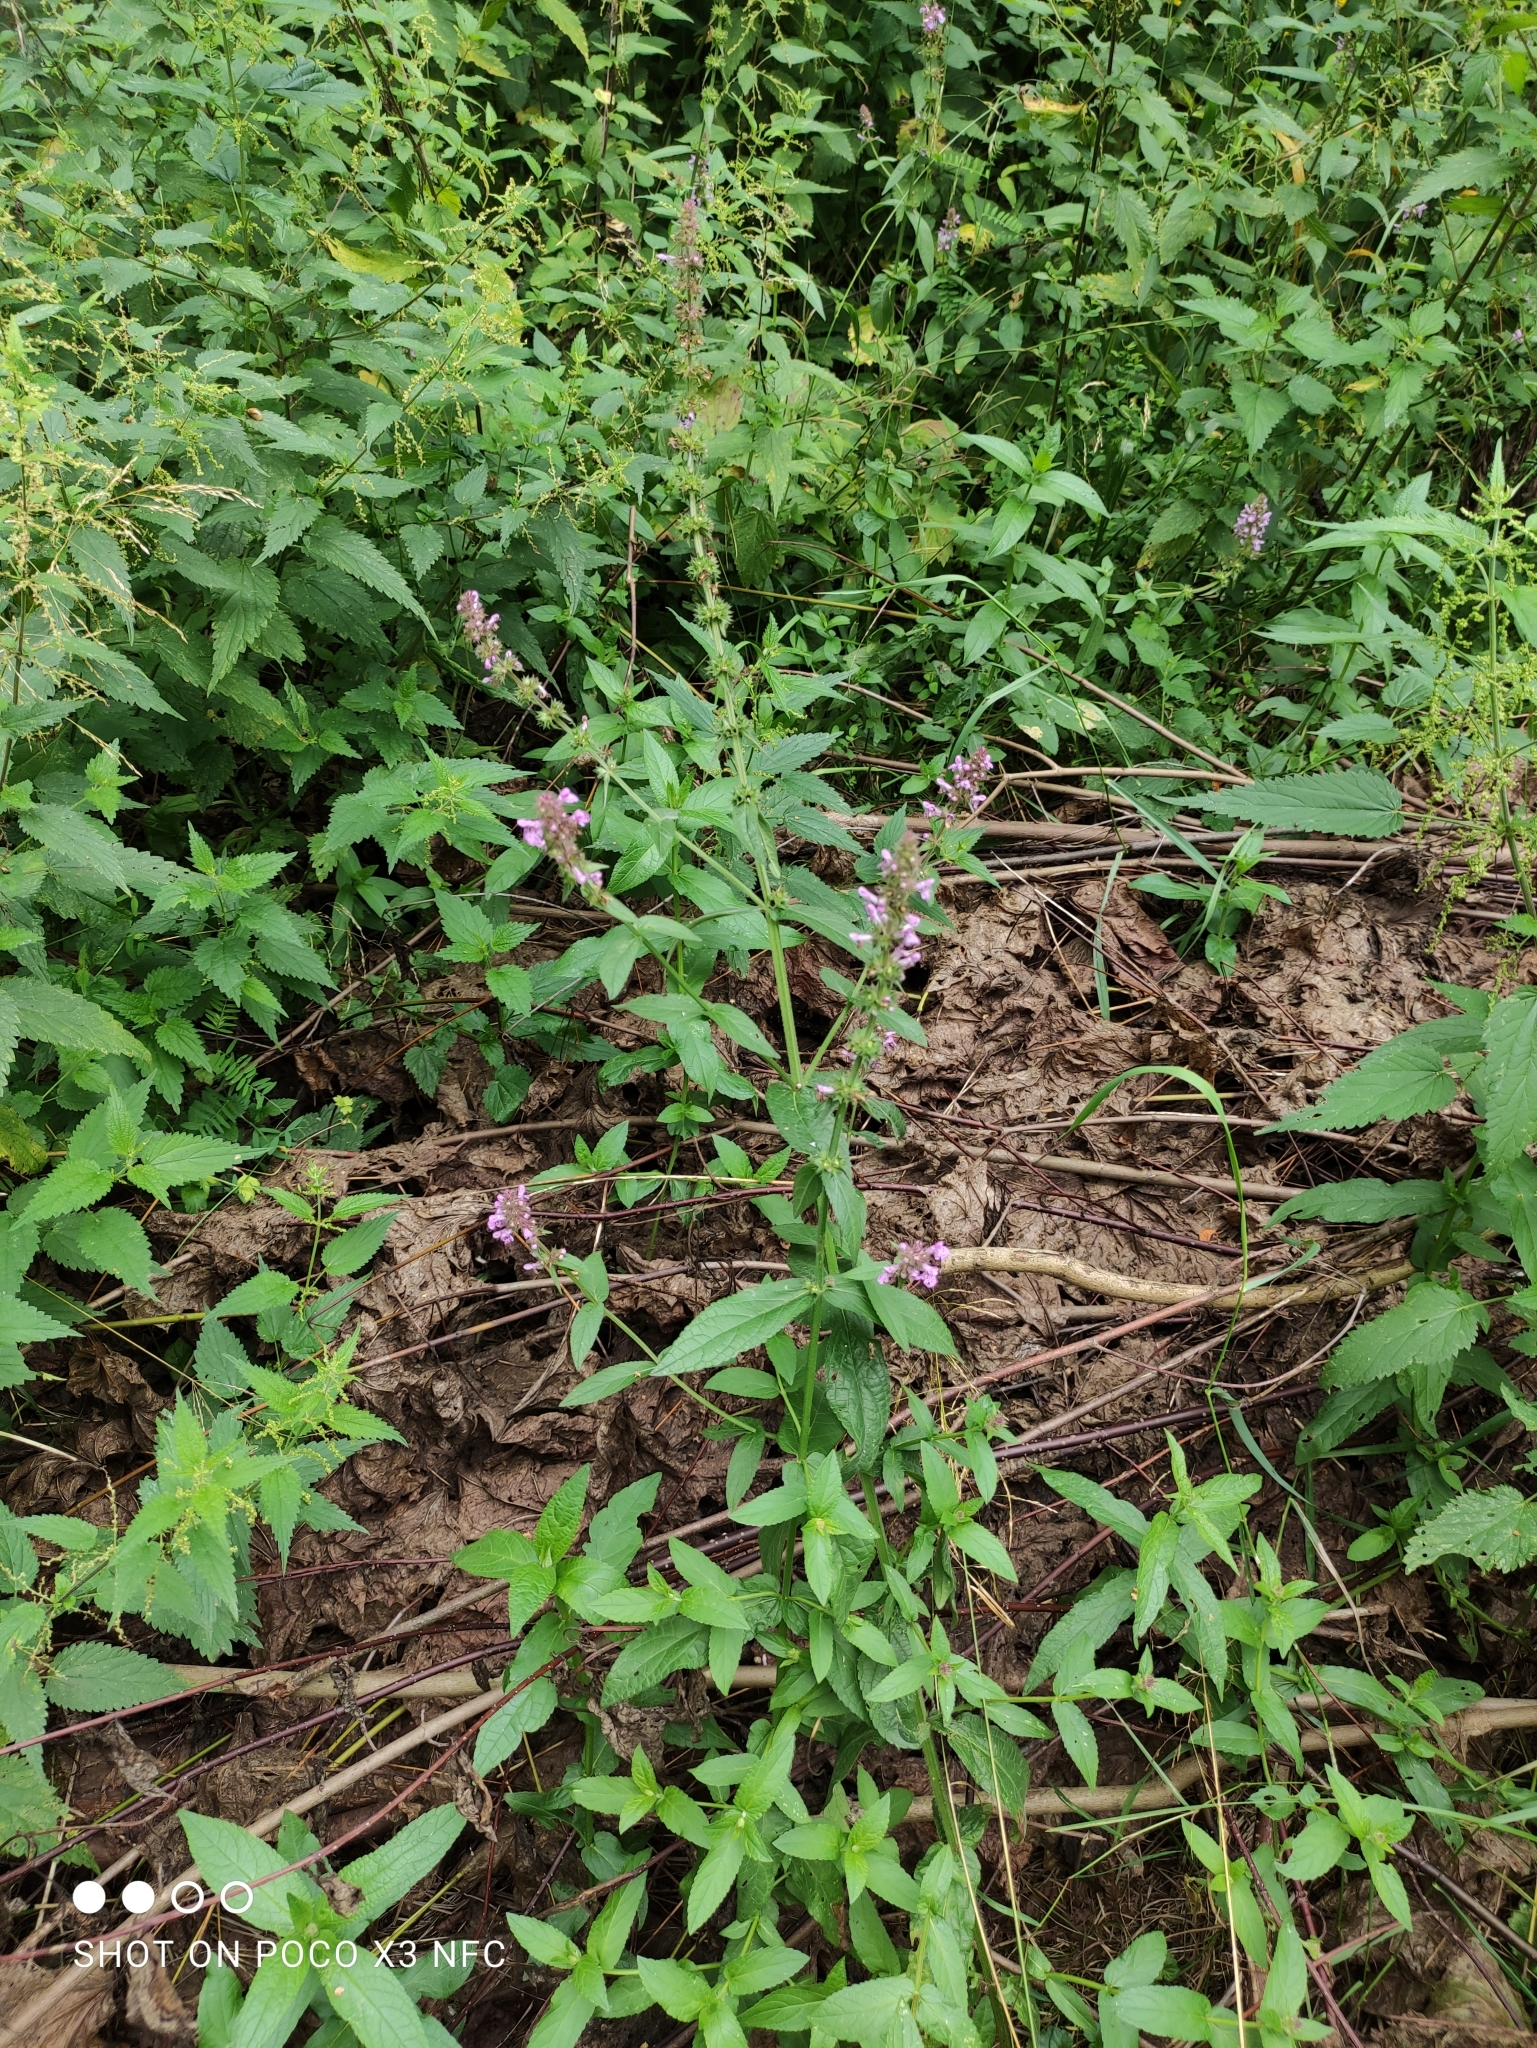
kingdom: Plantae
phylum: Tracheophyta
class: Magnoliopsida
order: Lamiales
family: Lamiaceae
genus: Stachys
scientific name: Stachys palustris
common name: Marsh woundwort
